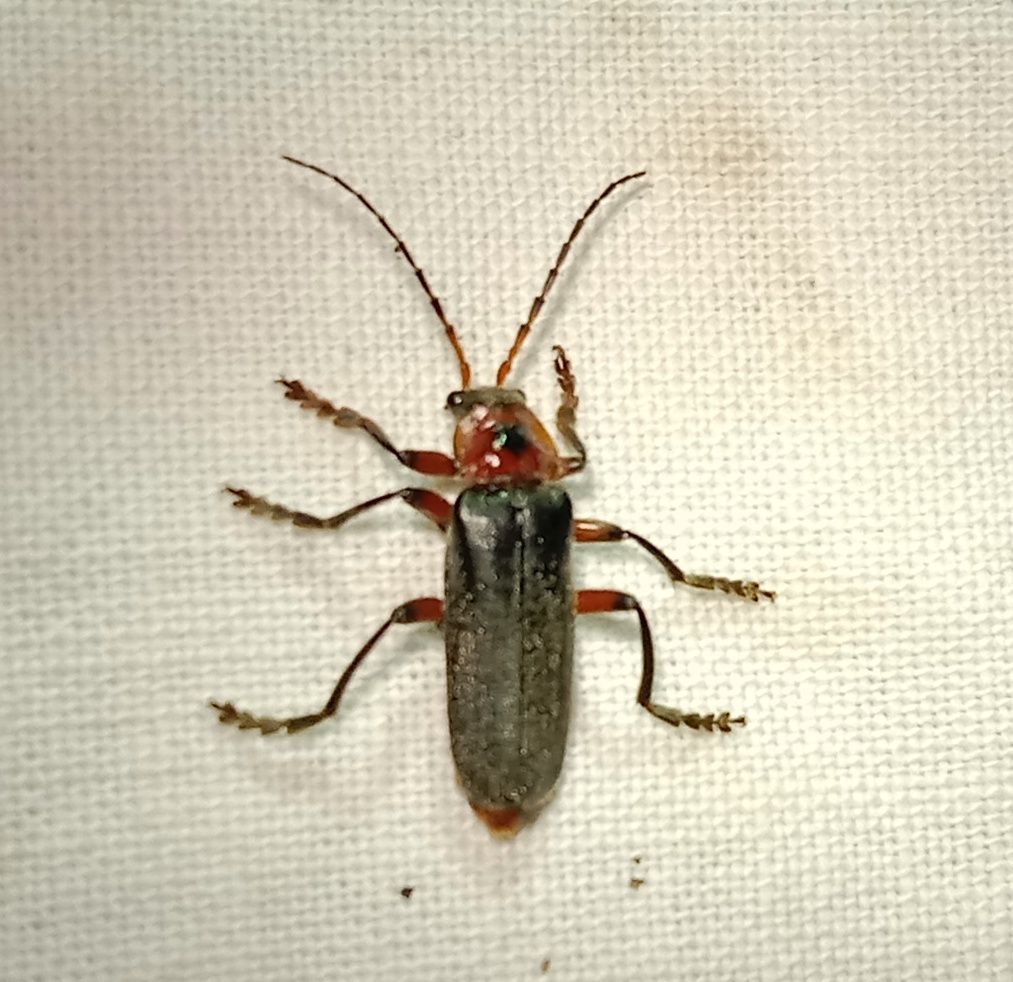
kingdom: Animalia
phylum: Arthropoda
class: Insecta
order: Coleoptera
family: Cantharidae
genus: Cantharis
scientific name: Cantharis rustica
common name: Soldier beetle
